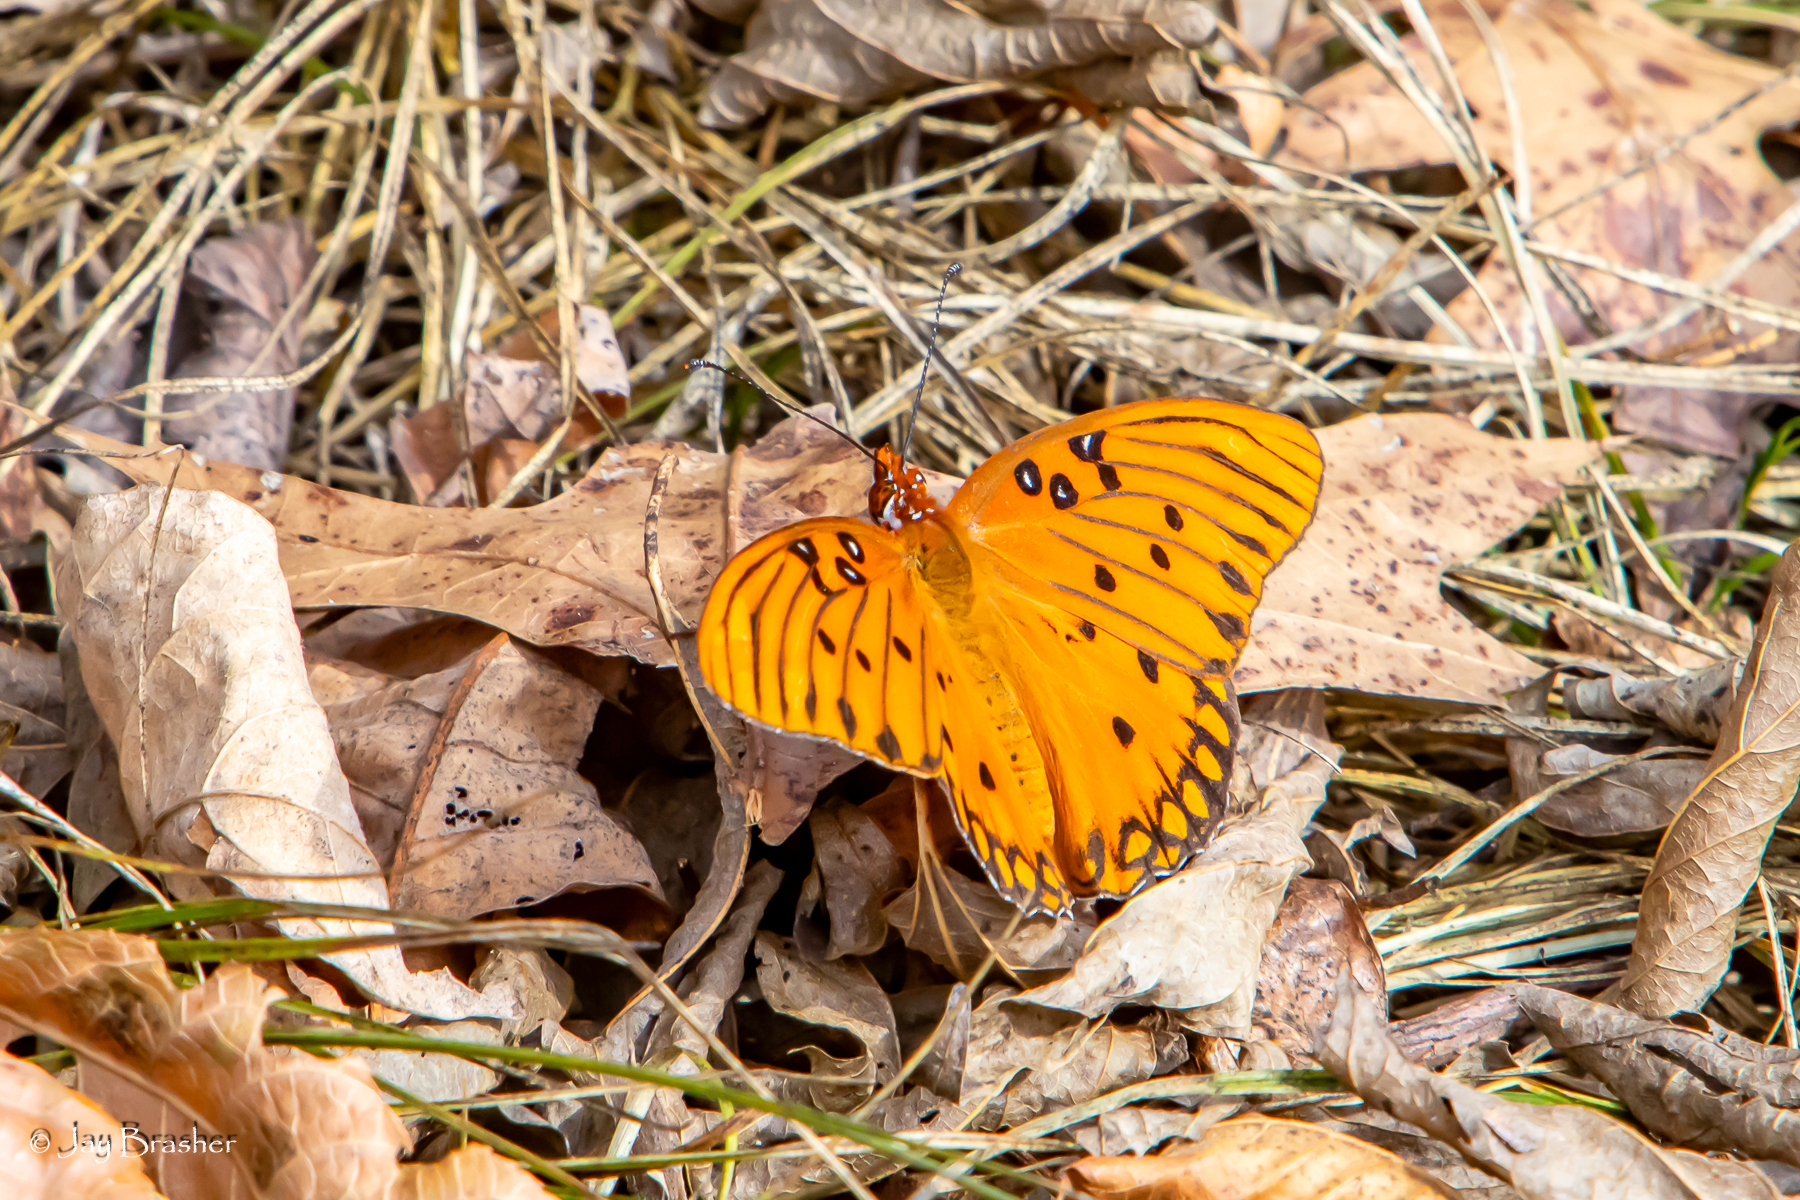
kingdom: Animalia
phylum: Arthropoda
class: Insecta
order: Lepidoptera
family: Nymphalidae
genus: Dione
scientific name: Dione vanillae
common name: Gulf fritillary
